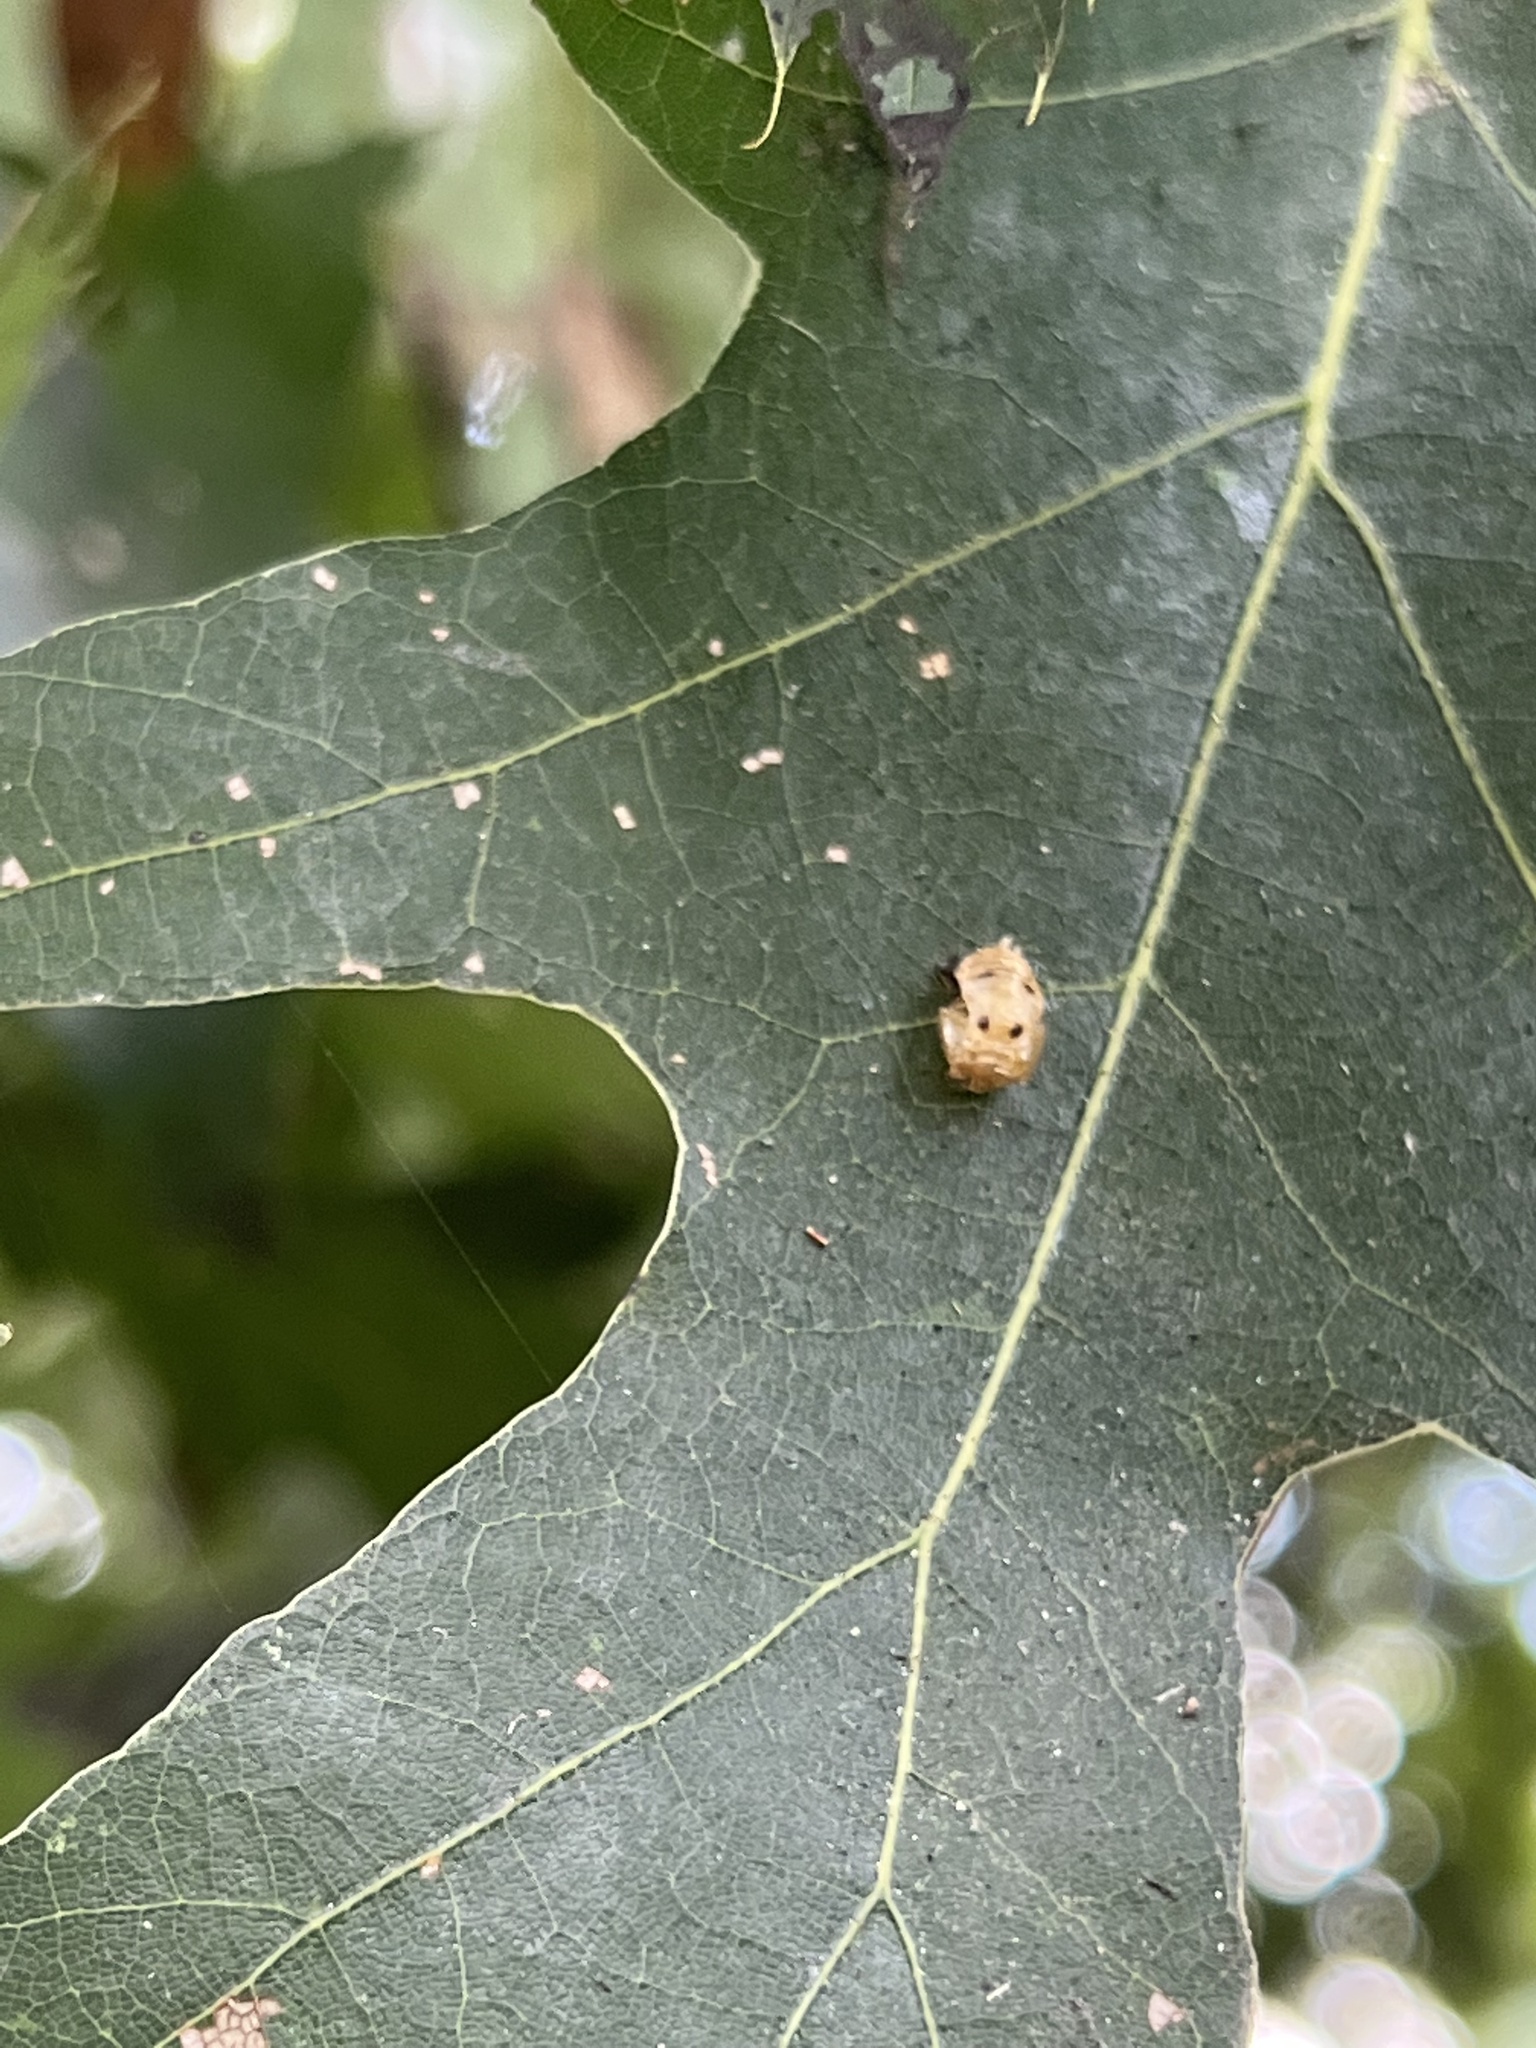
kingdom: Animalia
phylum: Arthropoda
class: Insecta
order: Coleoptera
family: Coccinellidae
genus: Harmonia
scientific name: Harmonia axyridis
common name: Harlequin ladybird
